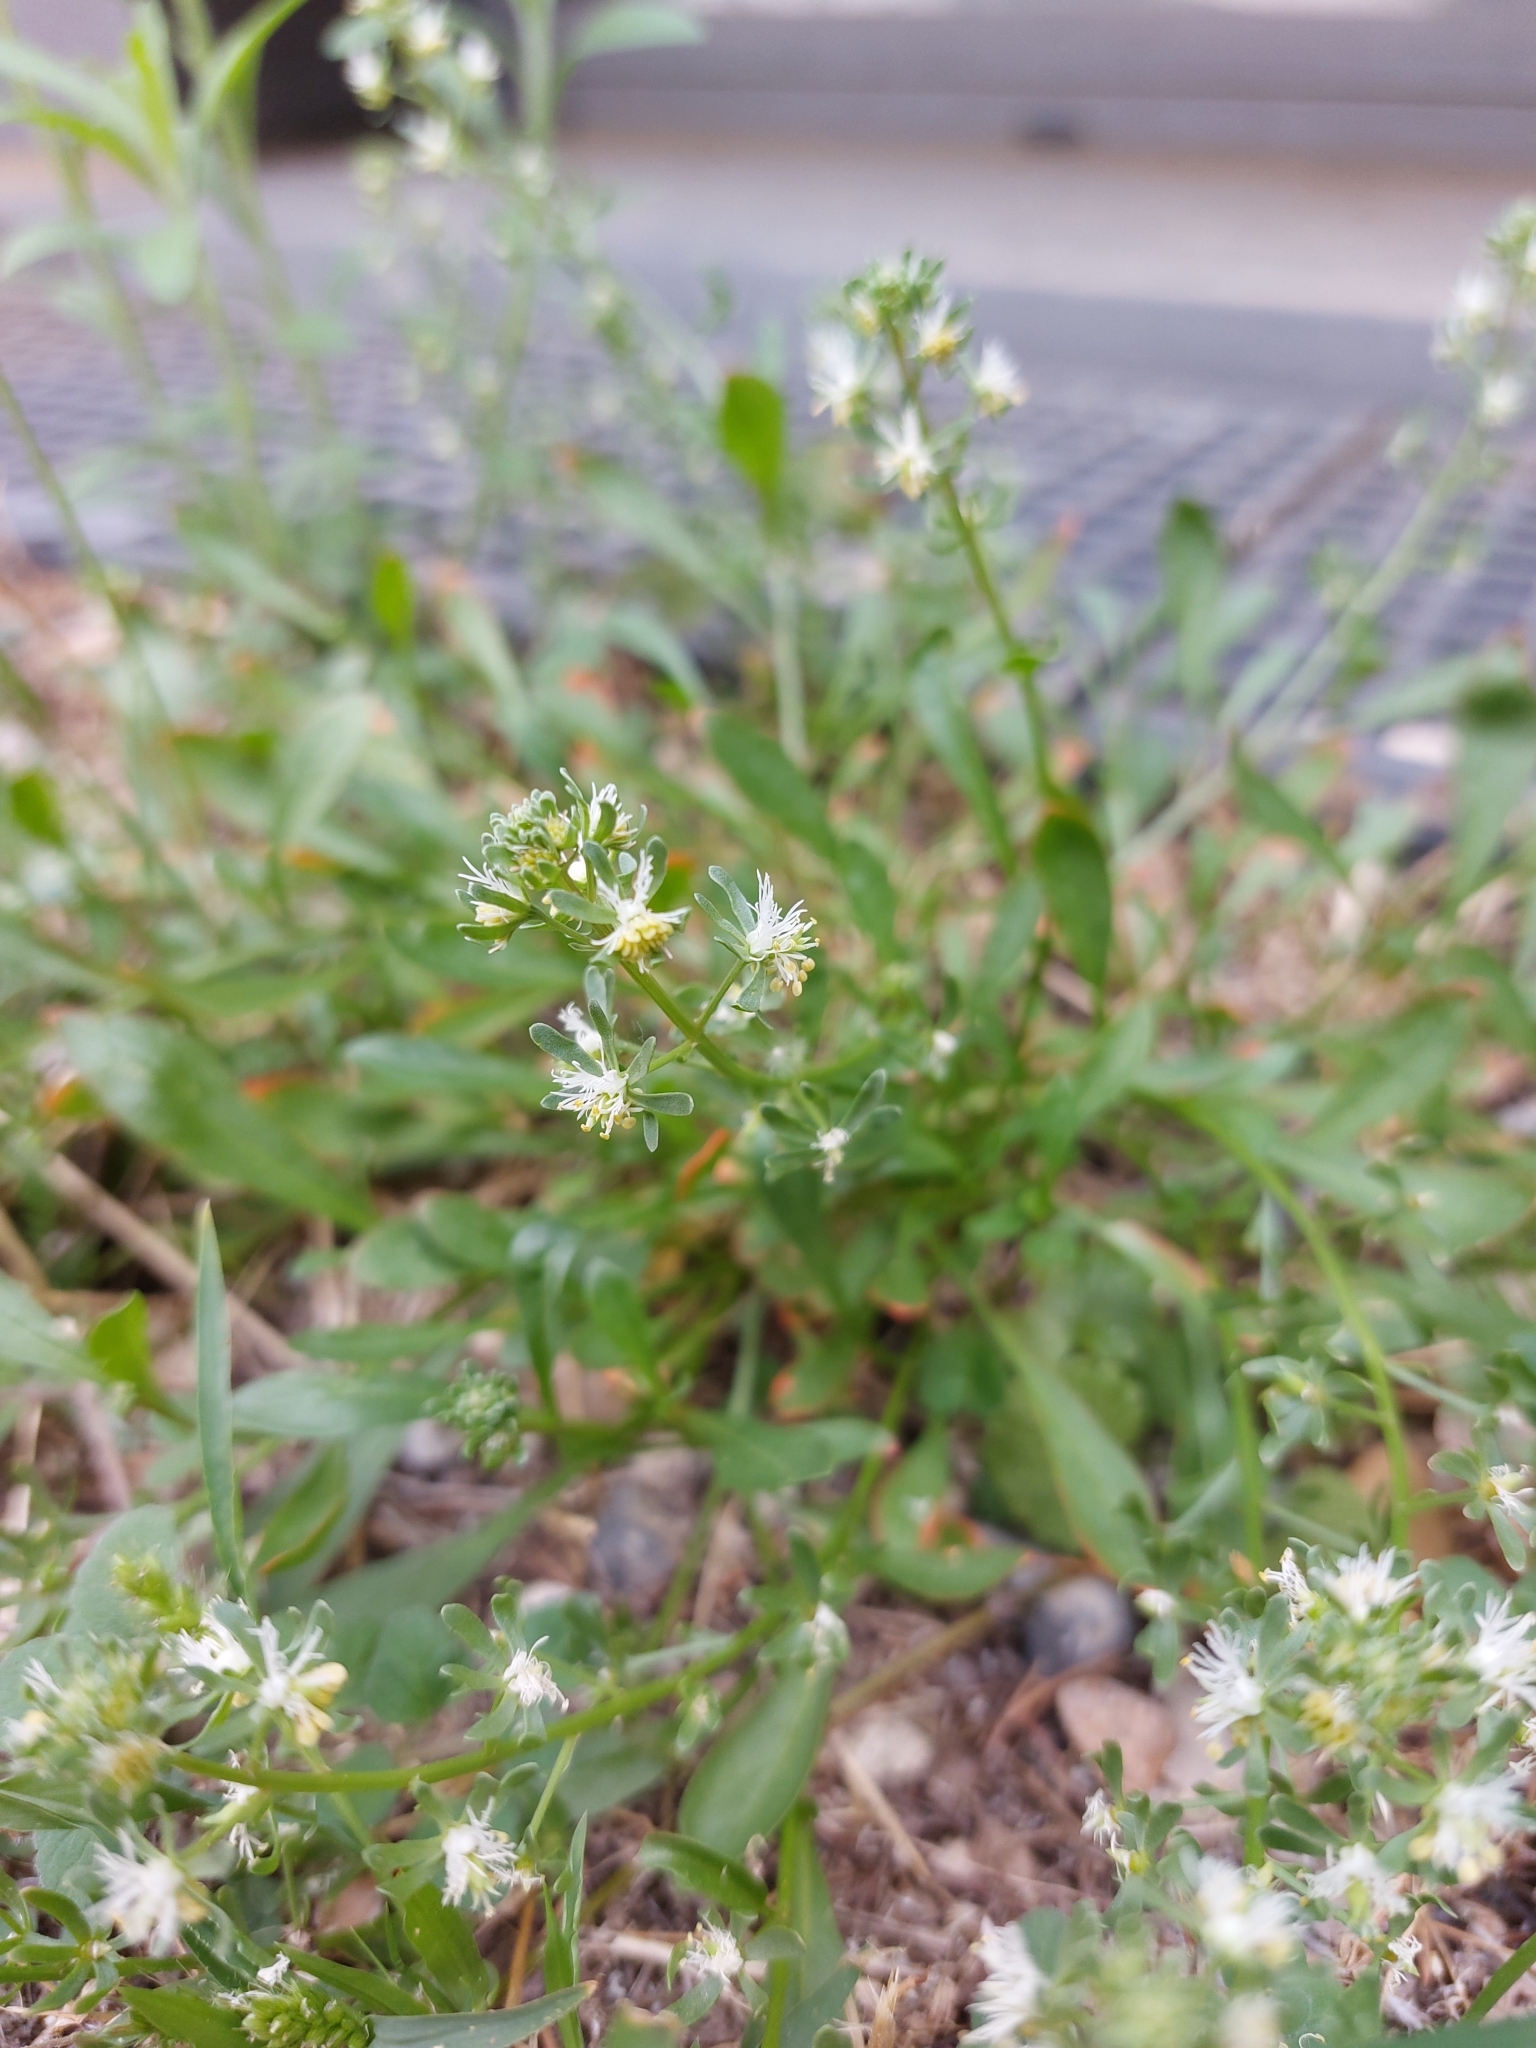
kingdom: Plantae
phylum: Tracheophyta
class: Magnoliopsida
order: Brassicales
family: Resedaceae
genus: Reseda
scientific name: Reseda phyteuma
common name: Corn mignonette
